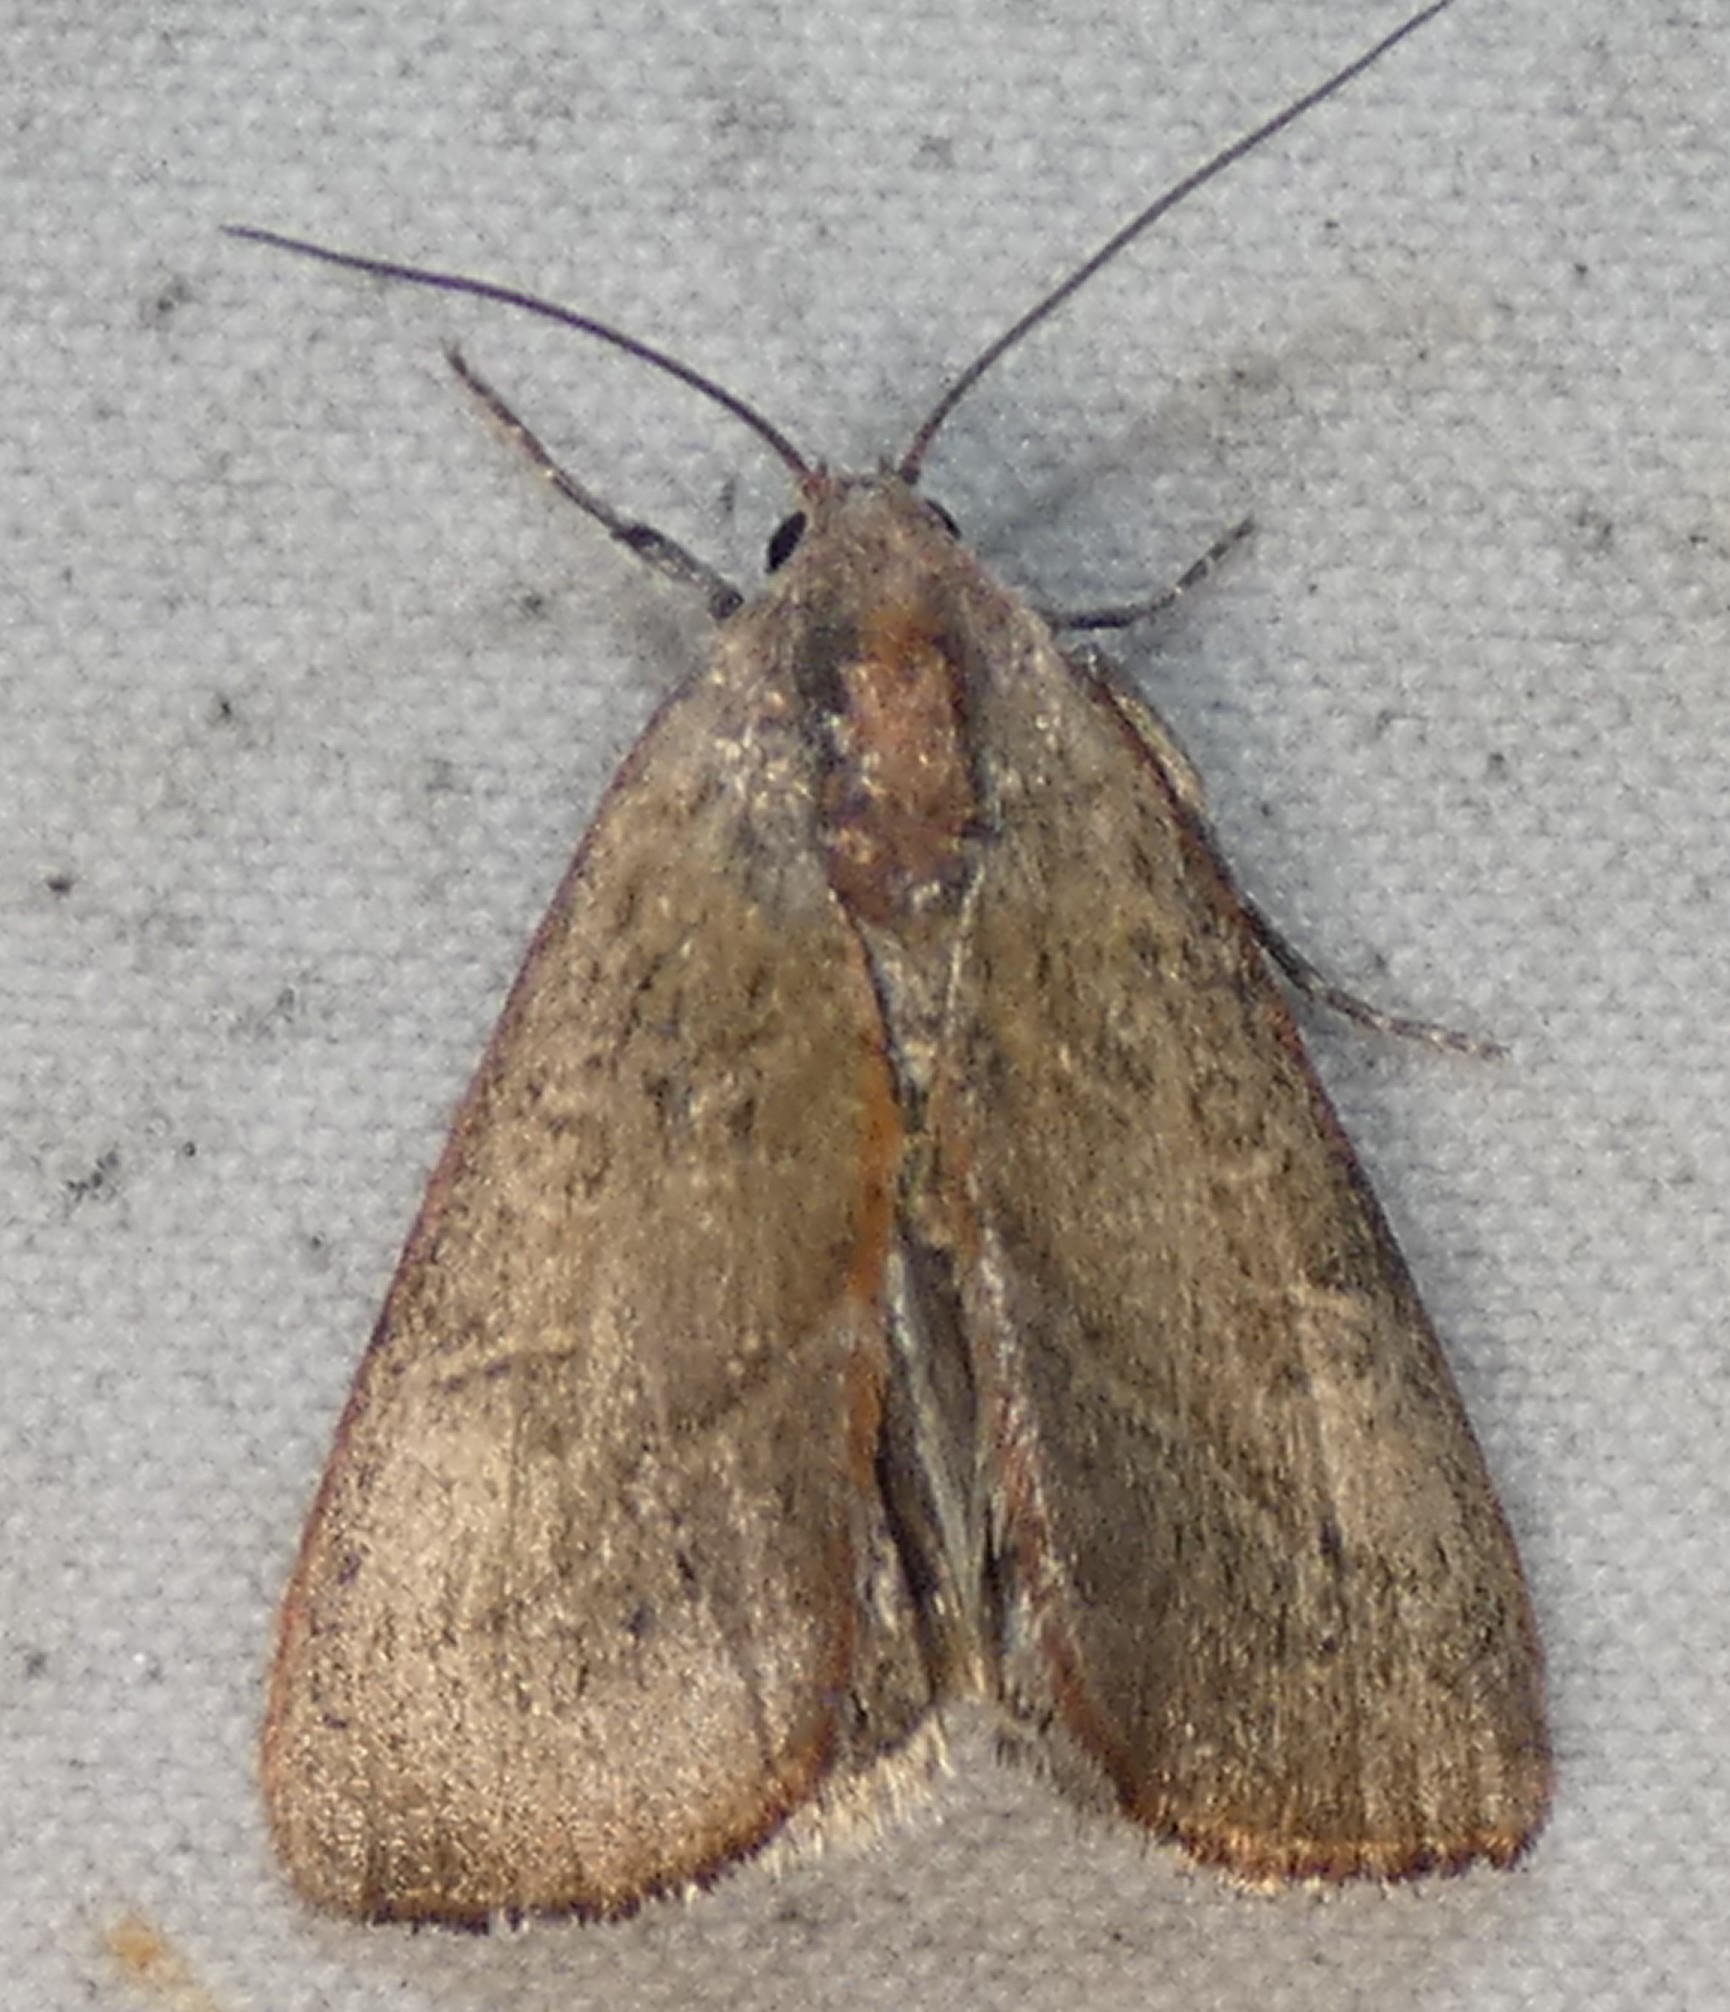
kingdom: Animalia
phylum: Arthropoda
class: Insecta
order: Lepidoptera
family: Noctuidae
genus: Galgula
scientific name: Galgula partita
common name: Wedgeling
